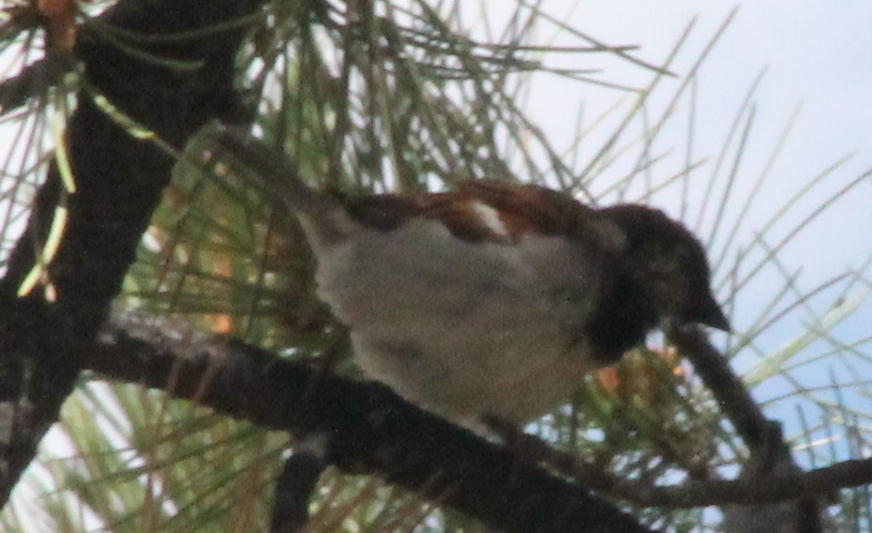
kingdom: Animalia
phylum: Chordata
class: Aves
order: Passeriformes
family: Passeridae
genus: Passer
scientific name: Passer domesticus
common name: House sparrow
